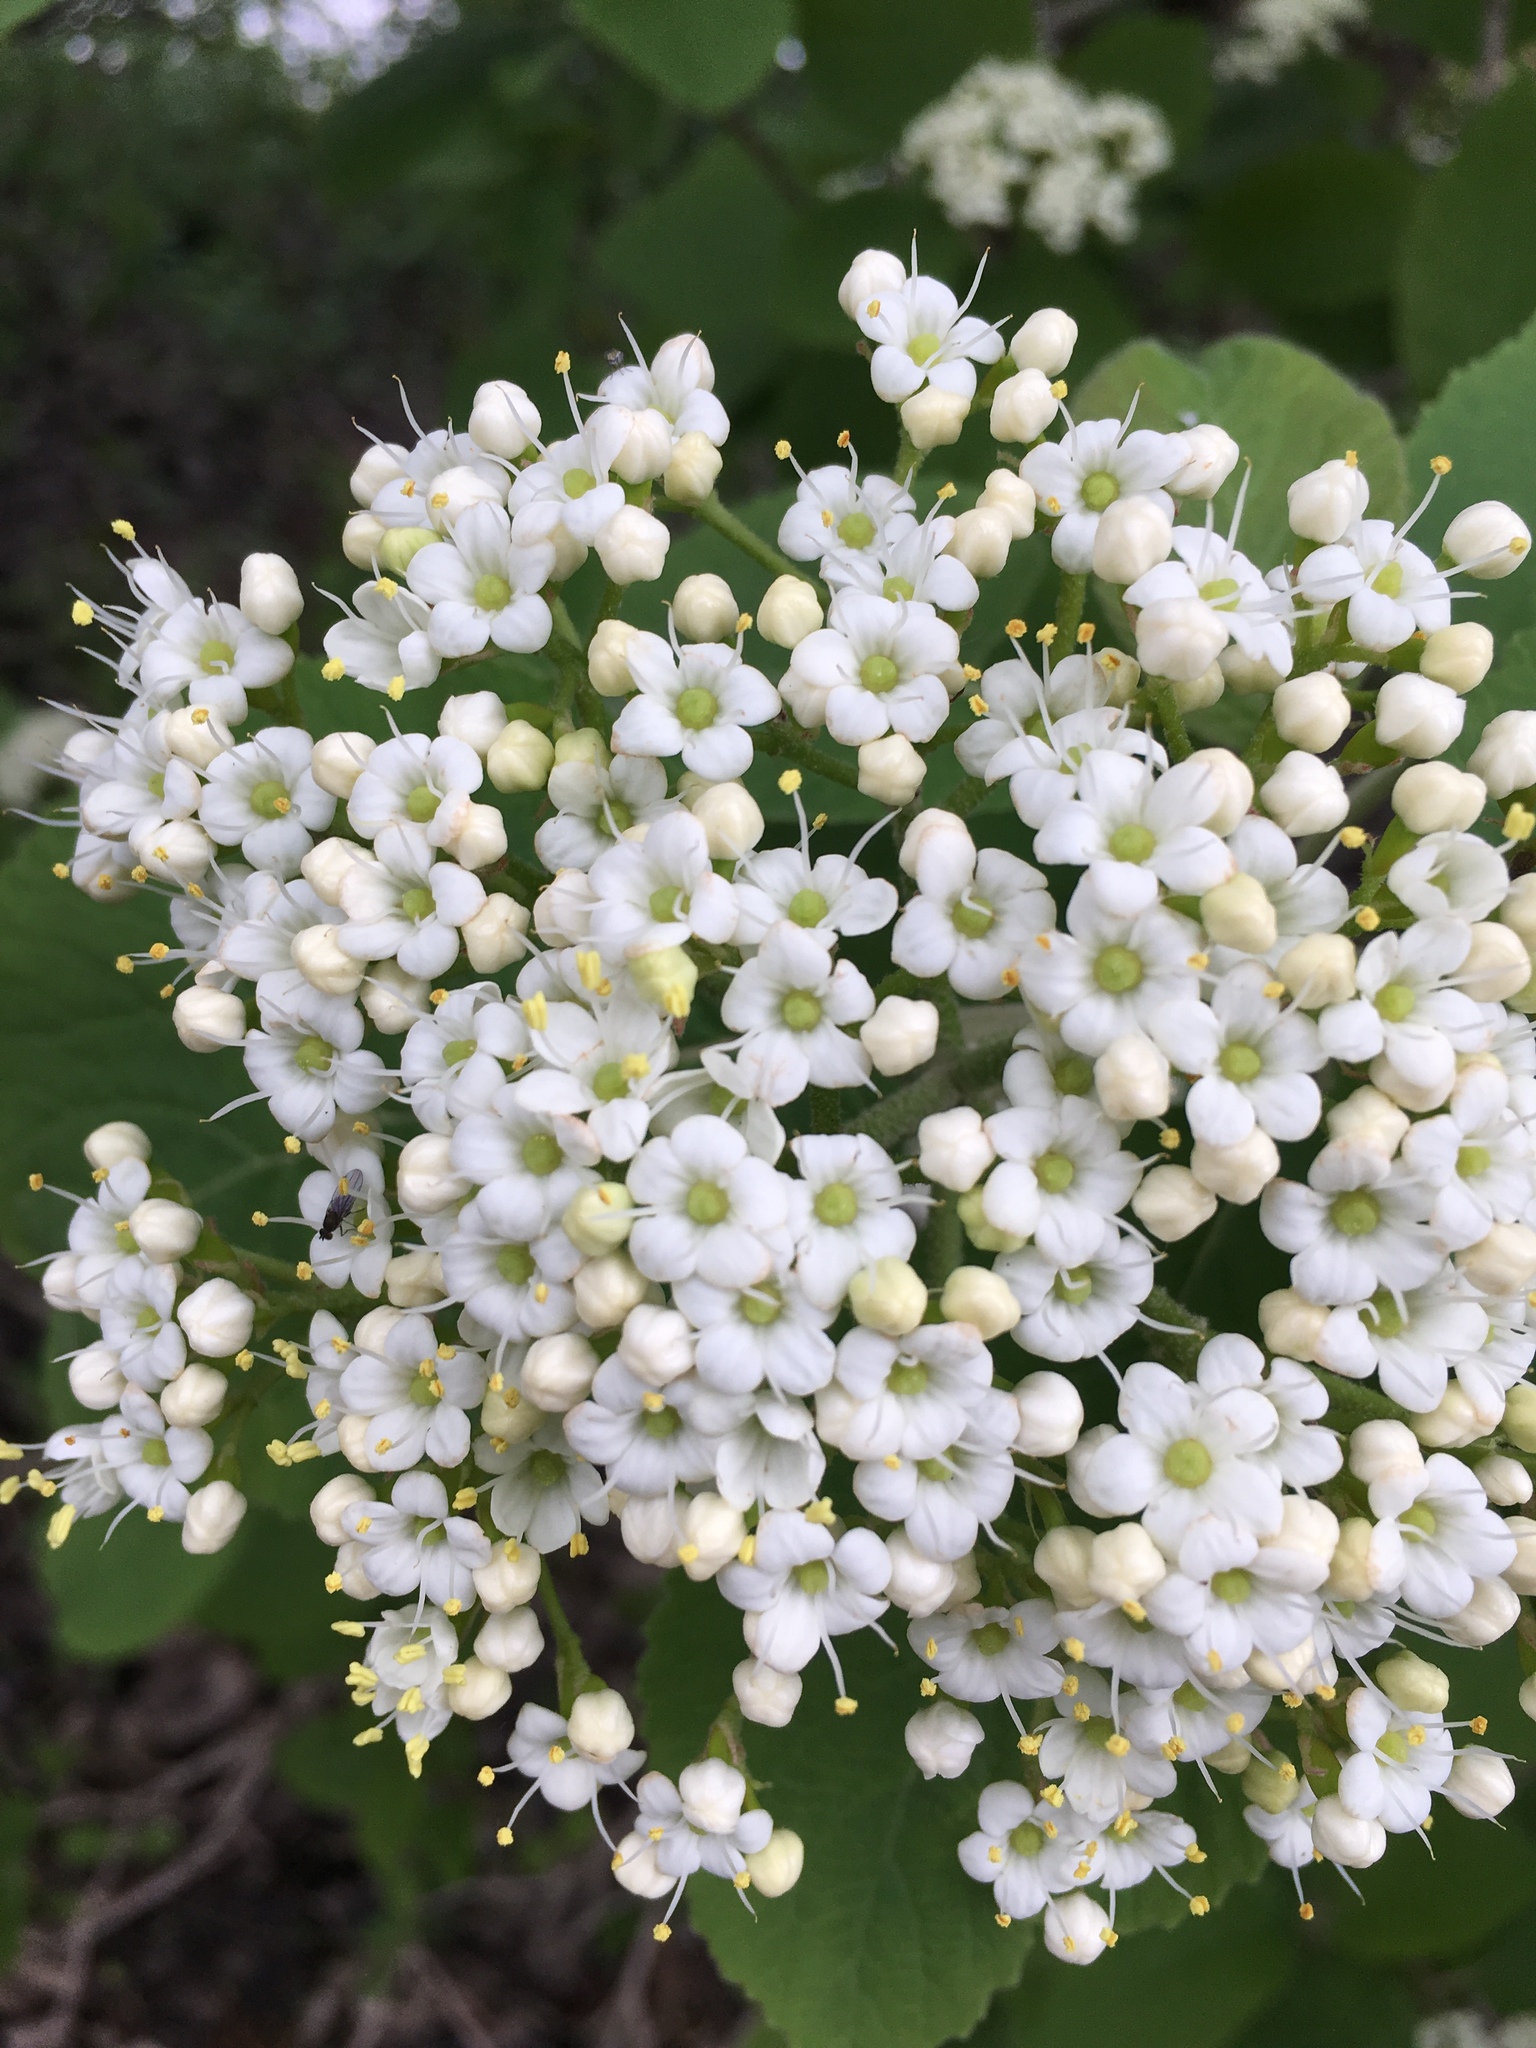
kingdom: Plantae
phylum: Tracheophyta
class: Magnoliopsida
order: Dipsacales
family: Viburnaceae
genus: Viburnum
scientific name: Viburnum lantana
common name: Wayfaring tree
